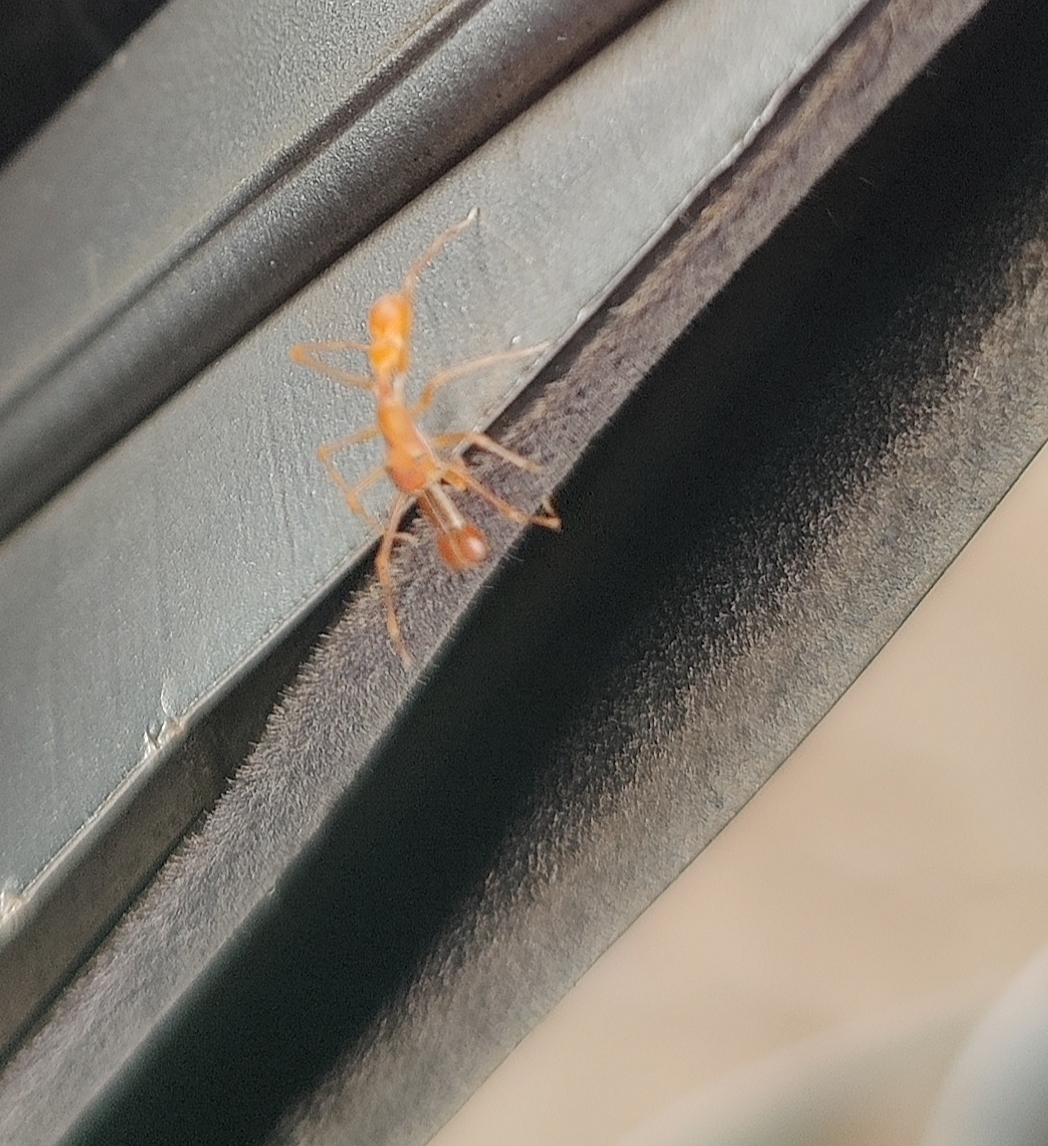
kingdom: Animalia
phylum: Arthropoda
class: Arachnida
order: Araneae
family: Salticidae
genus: Myrmaplata
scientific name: Myrmaplata plataleoides
